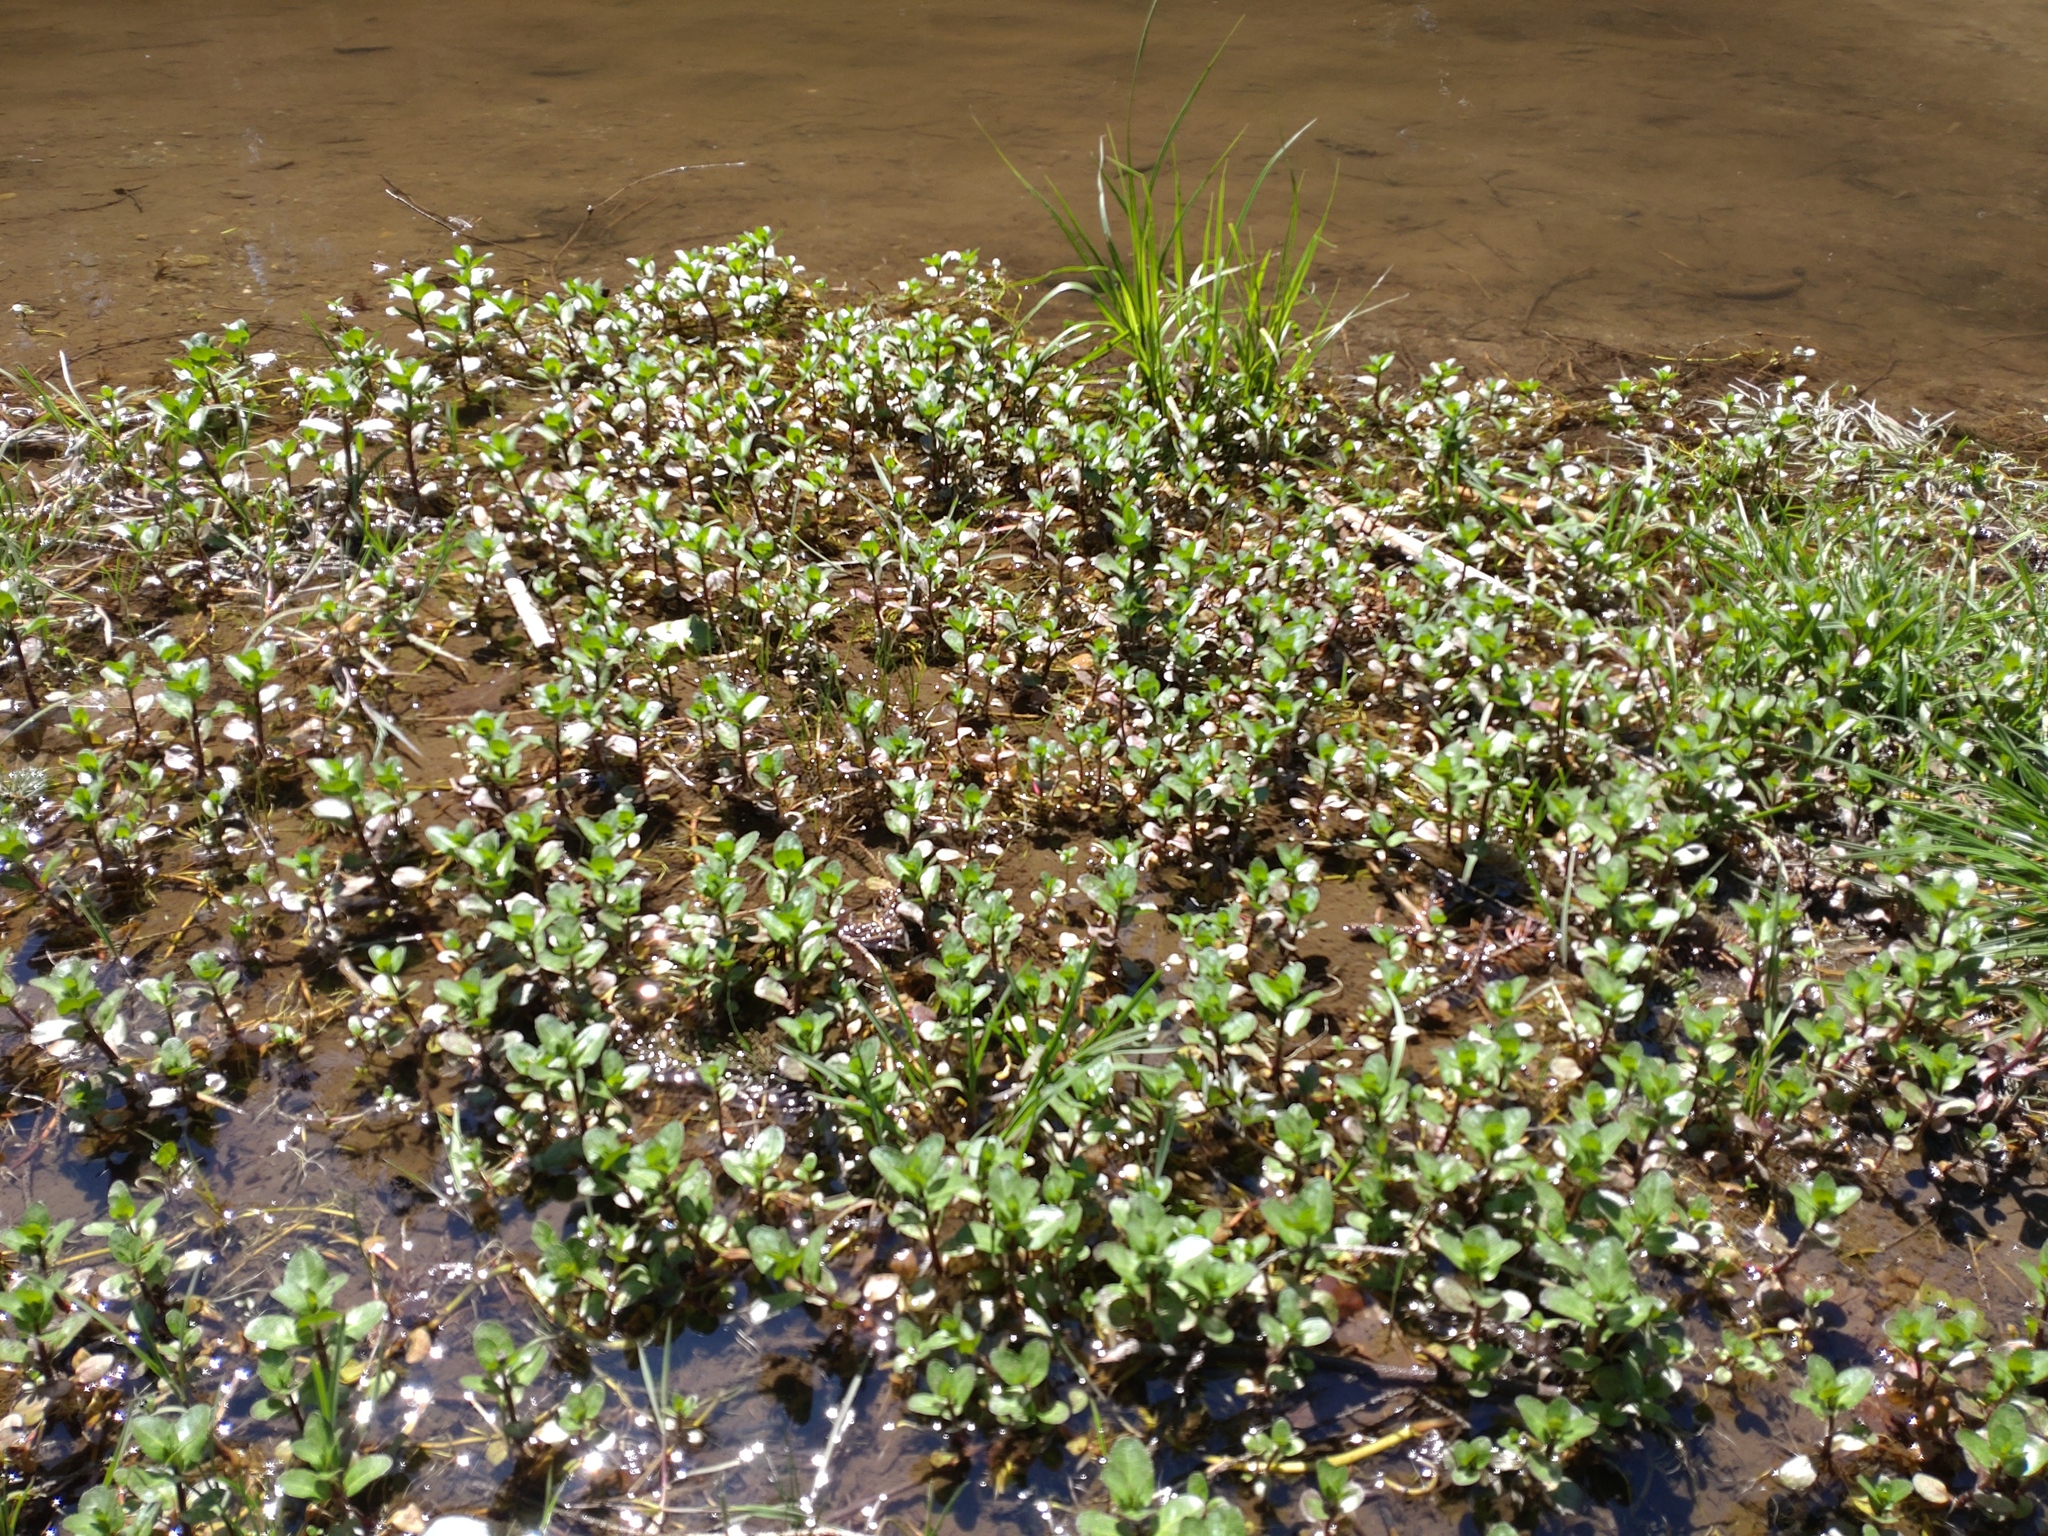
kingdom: Plantae
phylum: Tracheophyta
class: Magnoliopsida
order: Lamiales
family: Plantaginaceae
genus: Veronica
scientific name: Veronica beccabunga
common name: Brooklime
